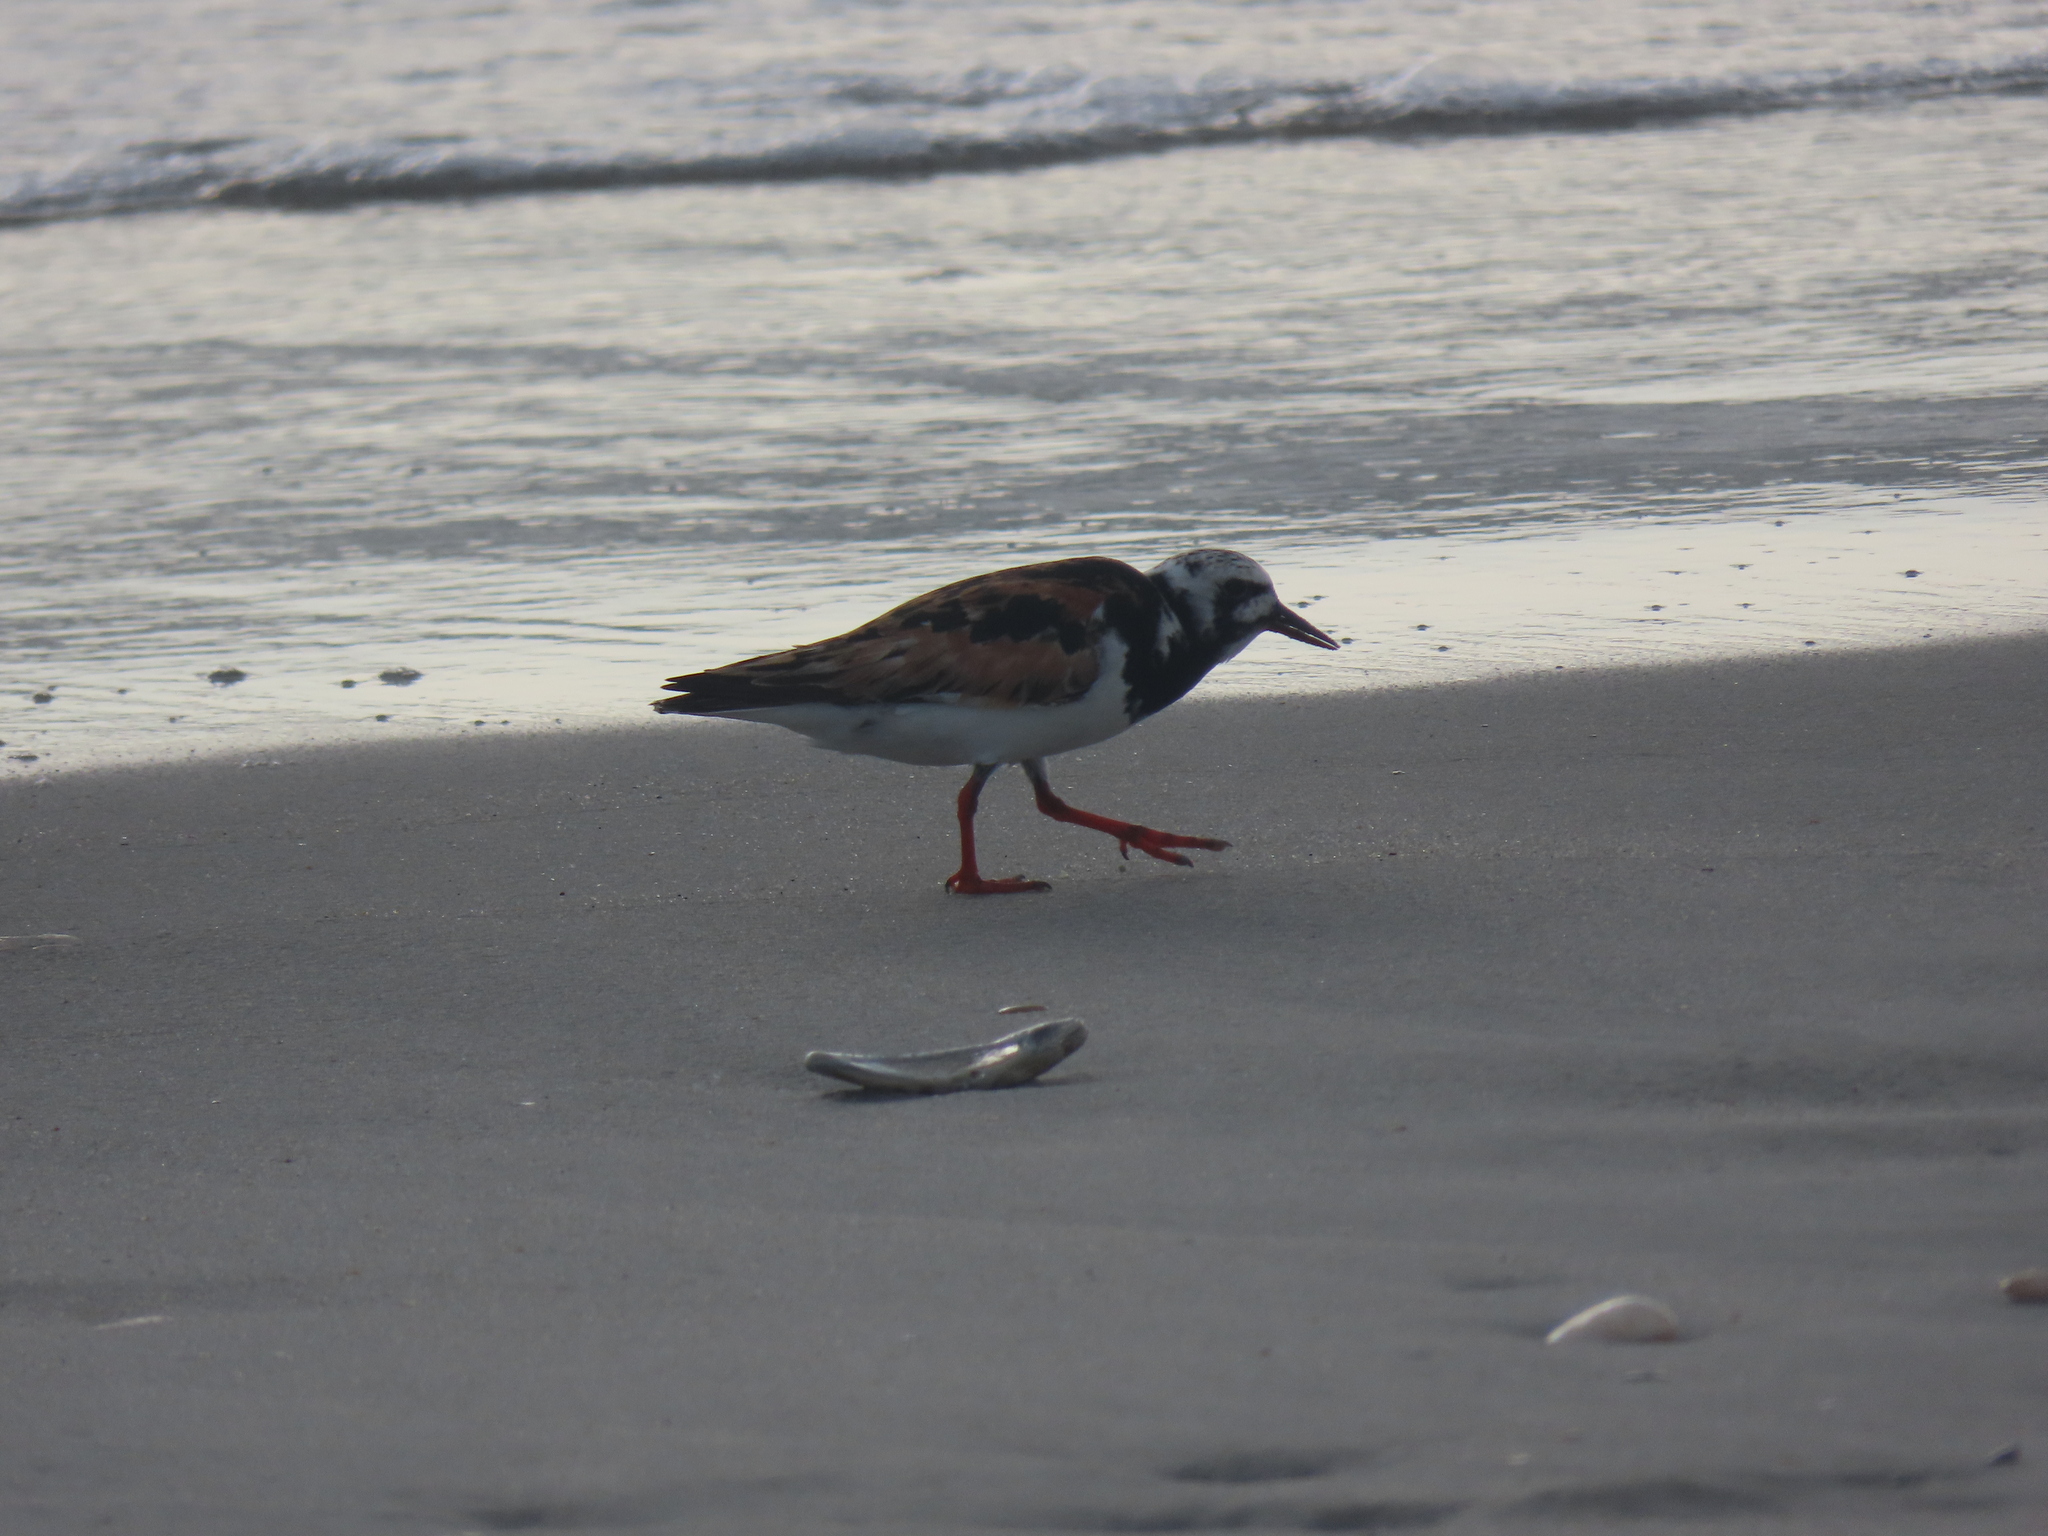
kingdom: Animalia
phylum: Chordata
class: Aves
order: Charadriiformes
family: Scolopacidae
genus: Arenaria
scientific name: Arenaria interpres
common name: Ruddy turnstone
